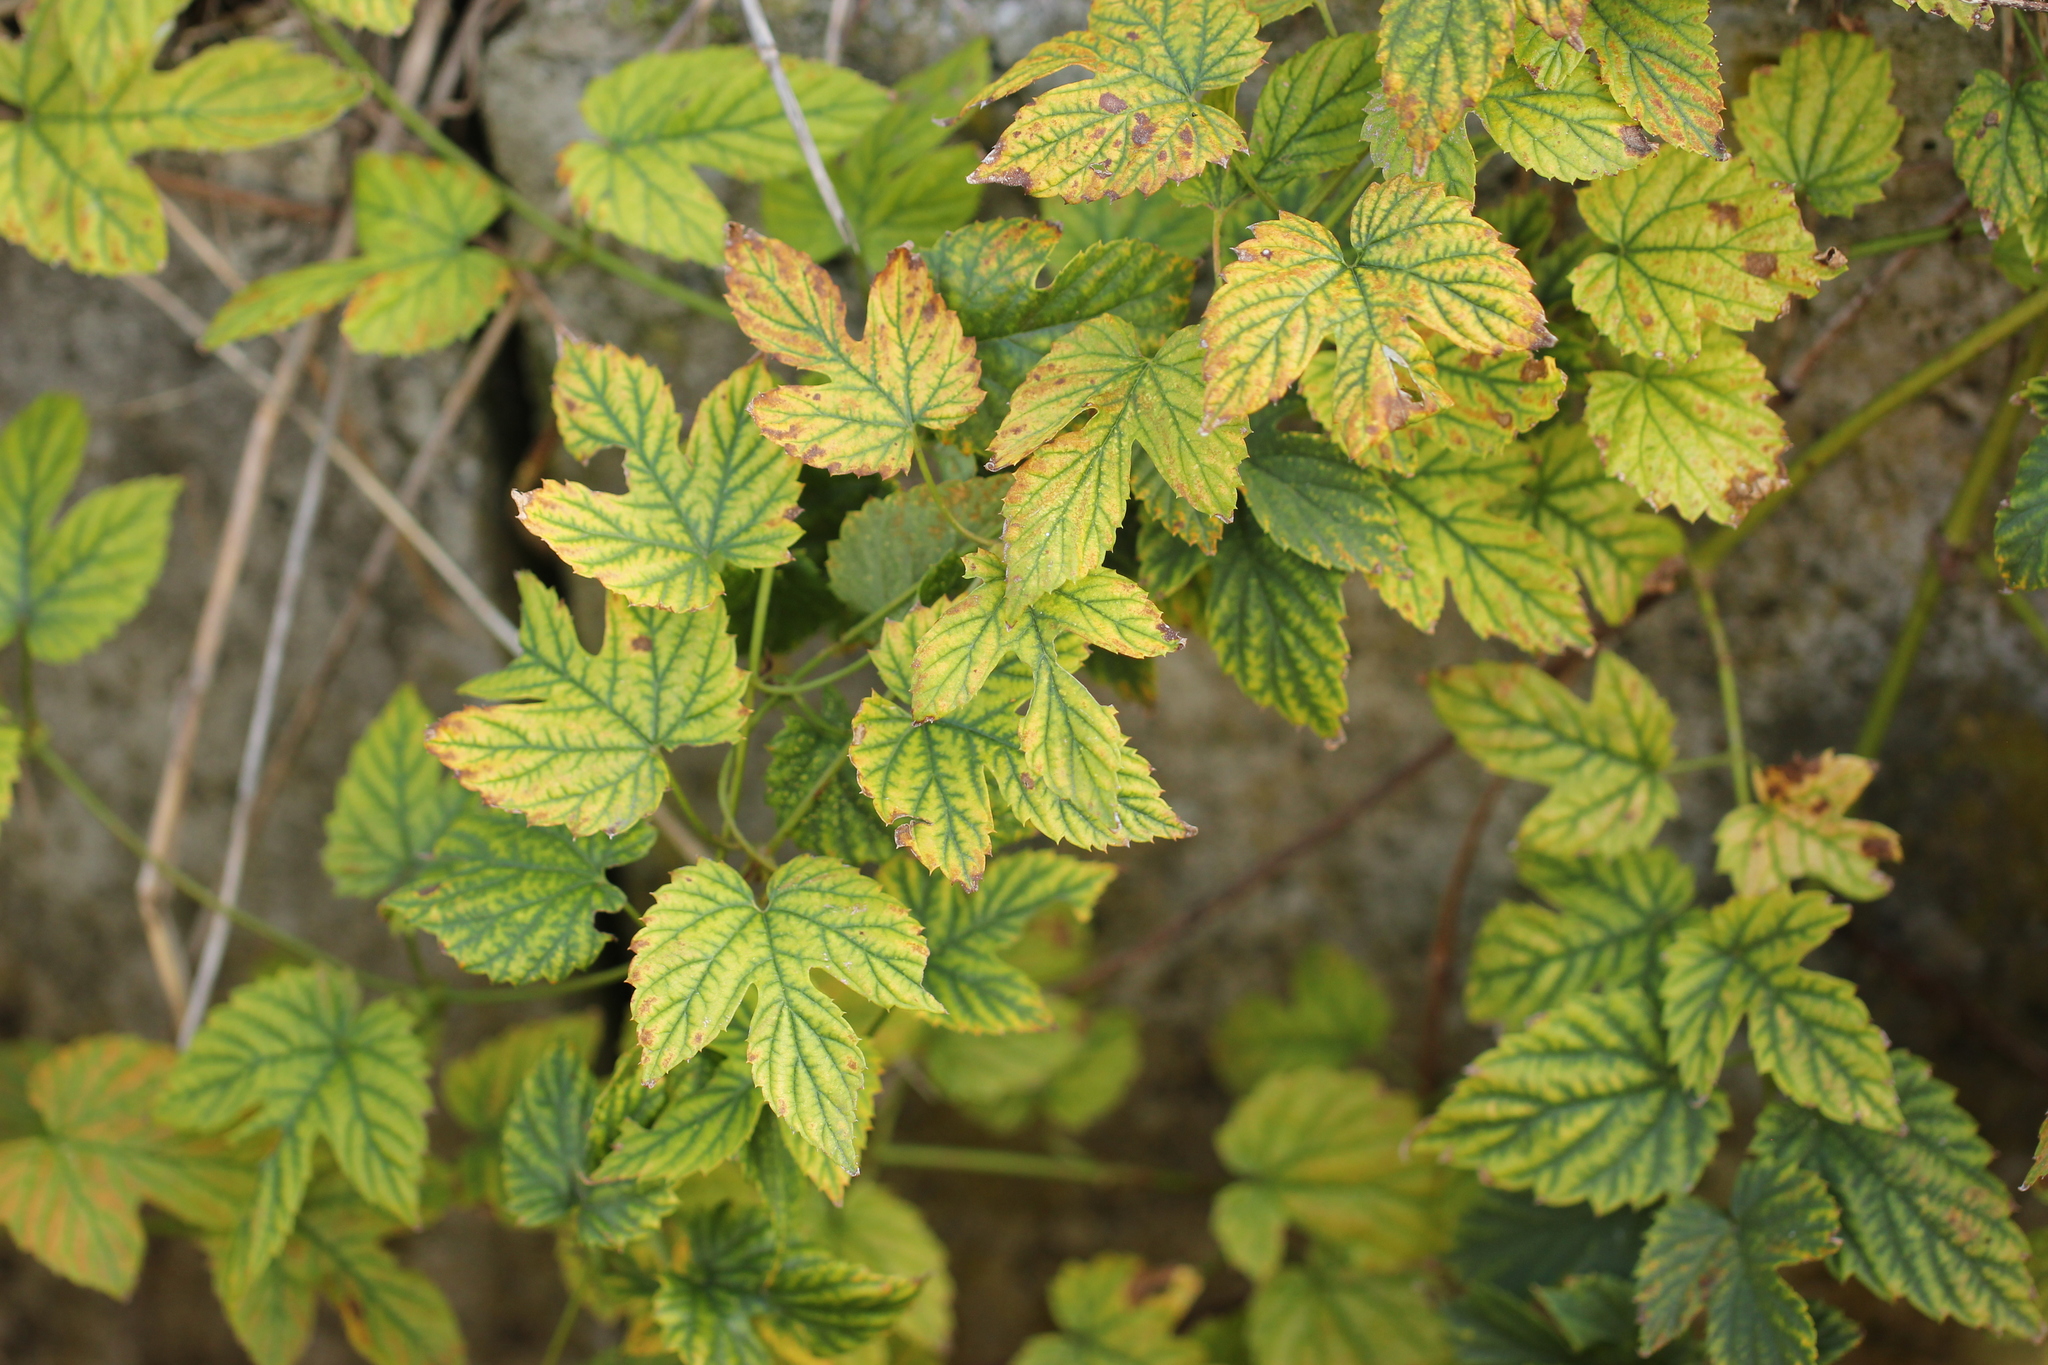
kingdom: Plantae
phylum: Tracheophyta
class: Magnoliopsida
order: Rosales
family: Cannabaceae
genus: Humulus
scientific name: Humulus lupulus
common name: Hop
